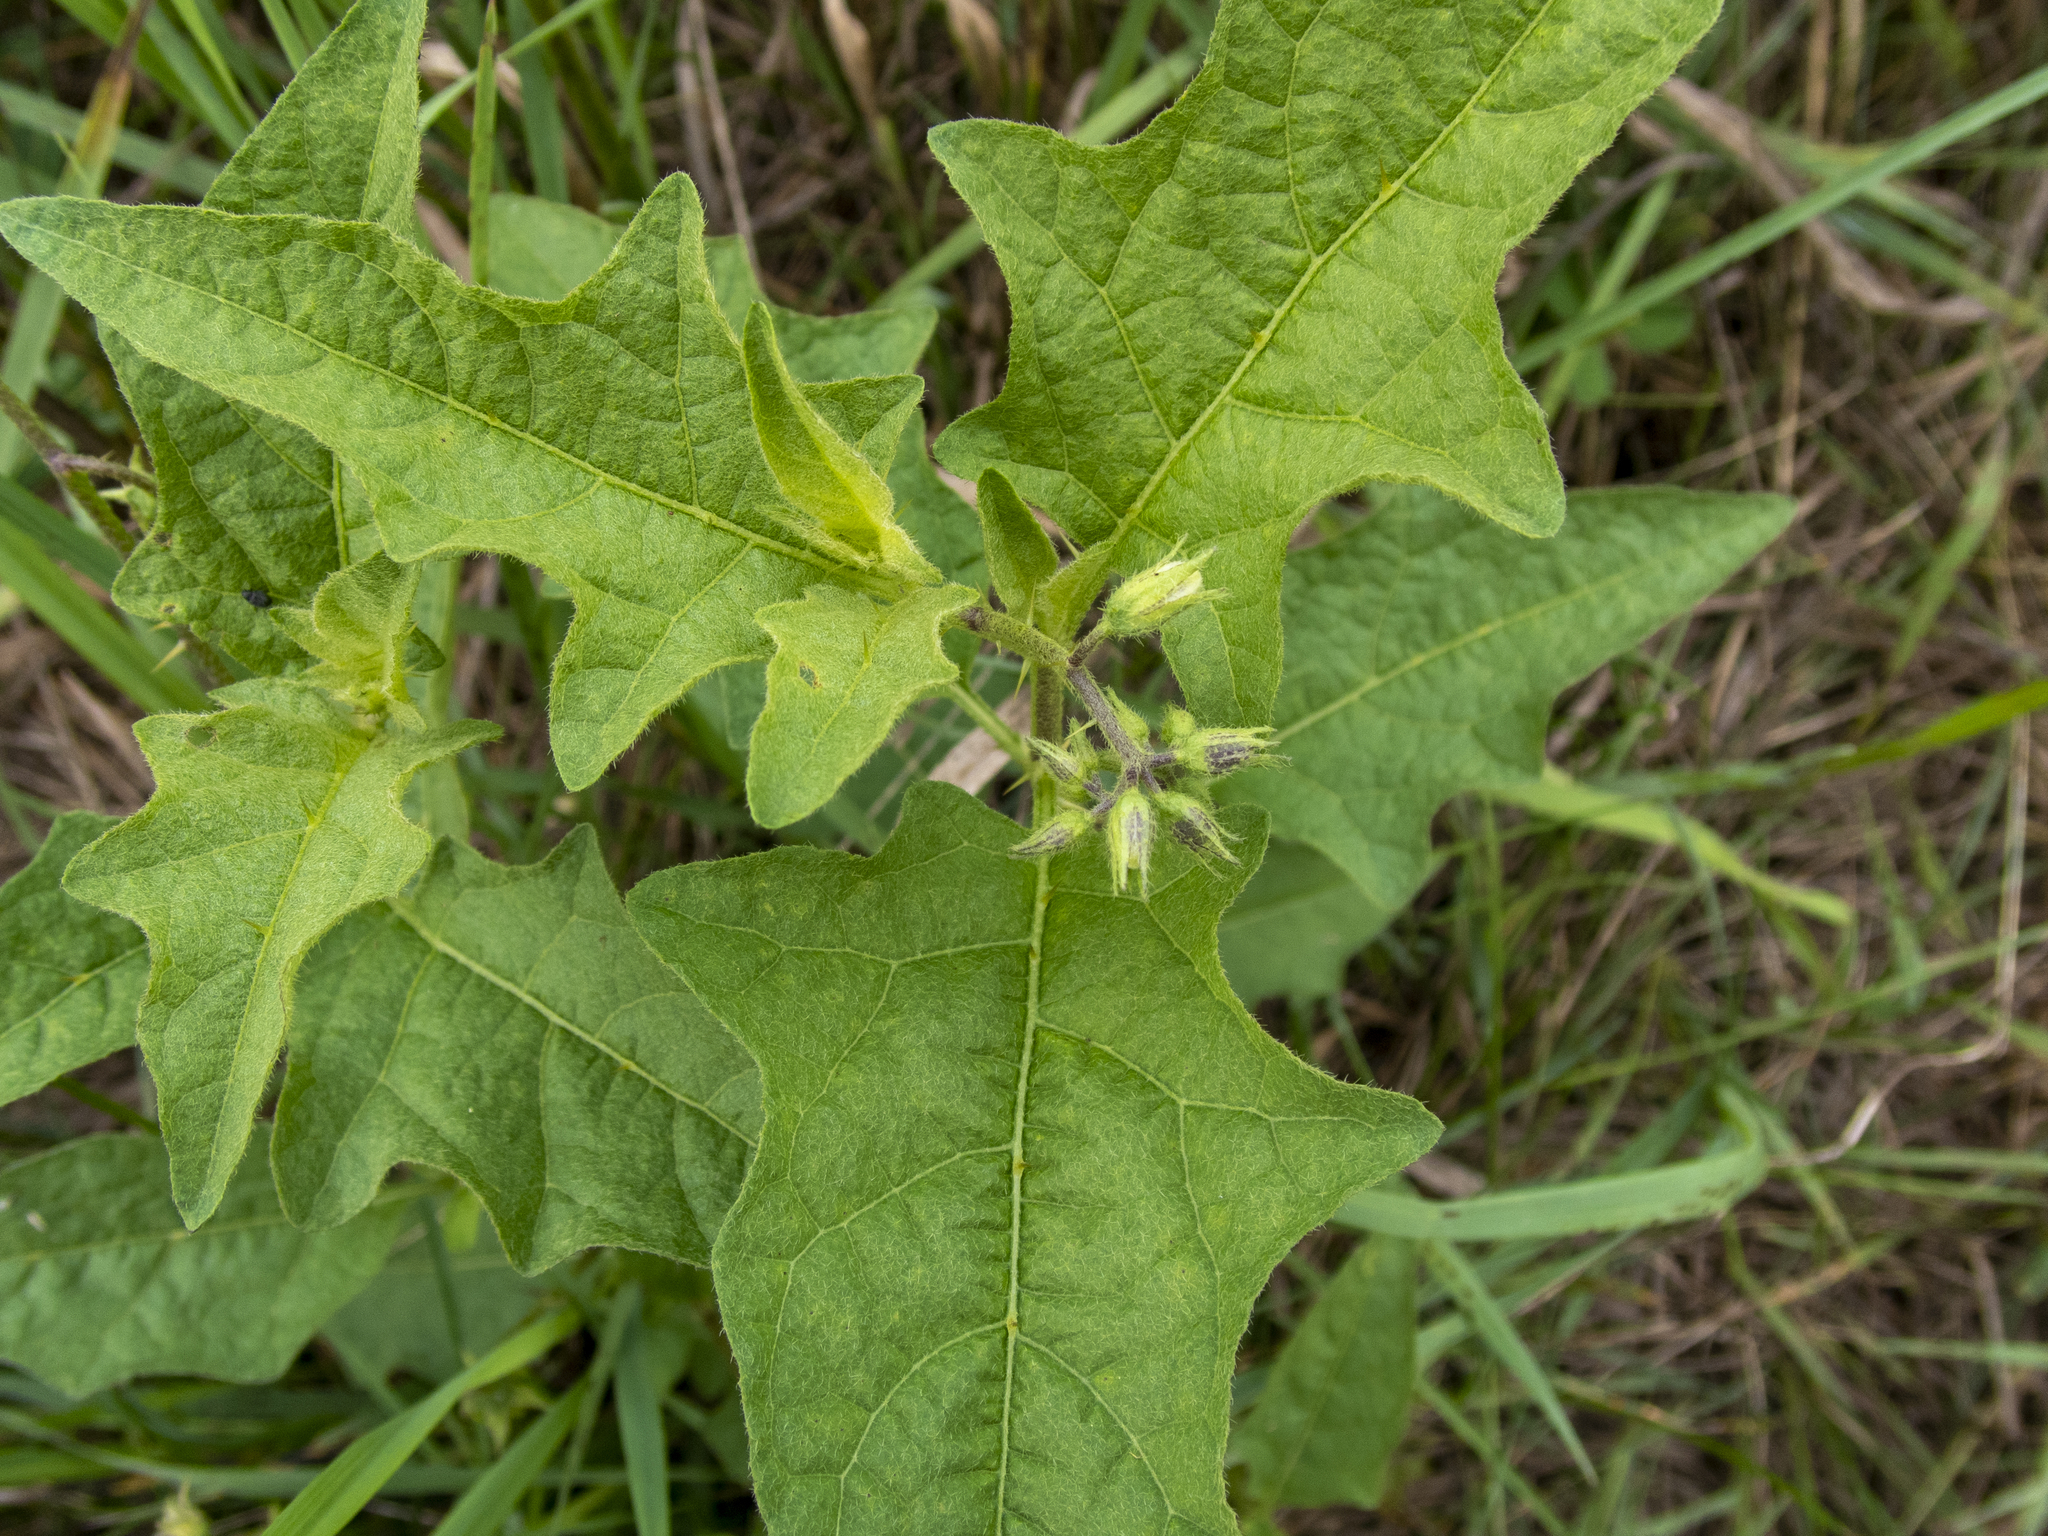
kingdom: Plantae
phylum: Tracheophyta
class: Magnoliopsida
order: Solanales
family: Solanaceae
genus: Solanum
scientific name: Solanum carolinense
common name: Horse-nettle
